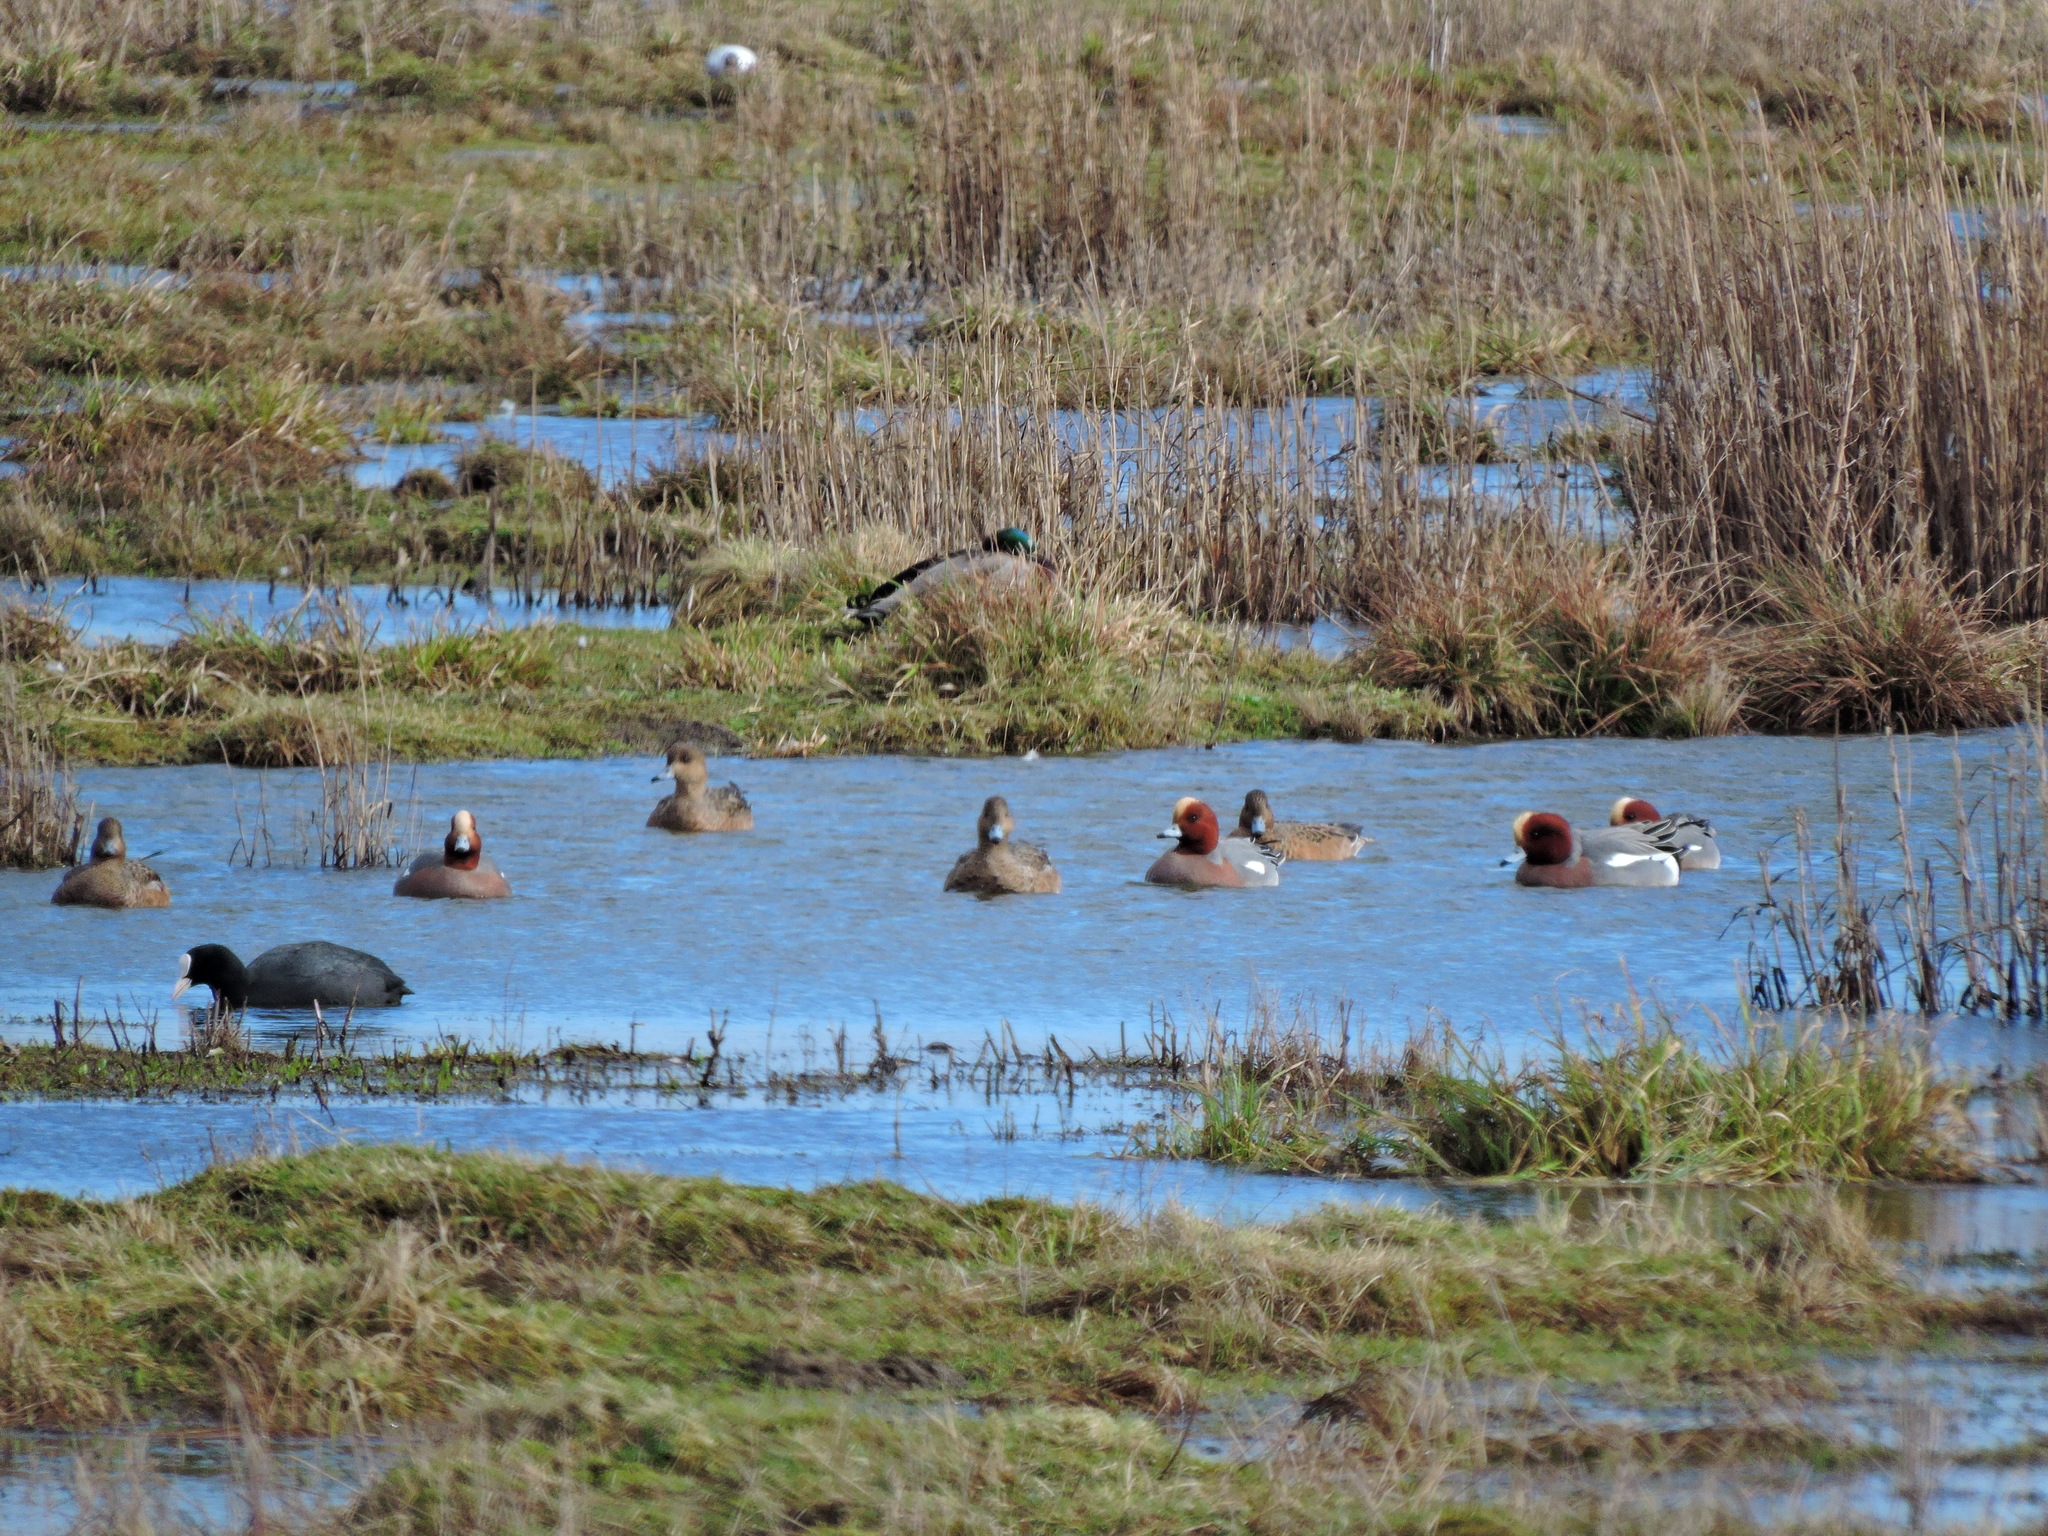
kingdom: Animalia
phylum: Chordata
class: Aves
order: Gruiformes
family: Rallidae
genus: Fulica
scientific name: Fulica atra
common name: Eurasian coot
